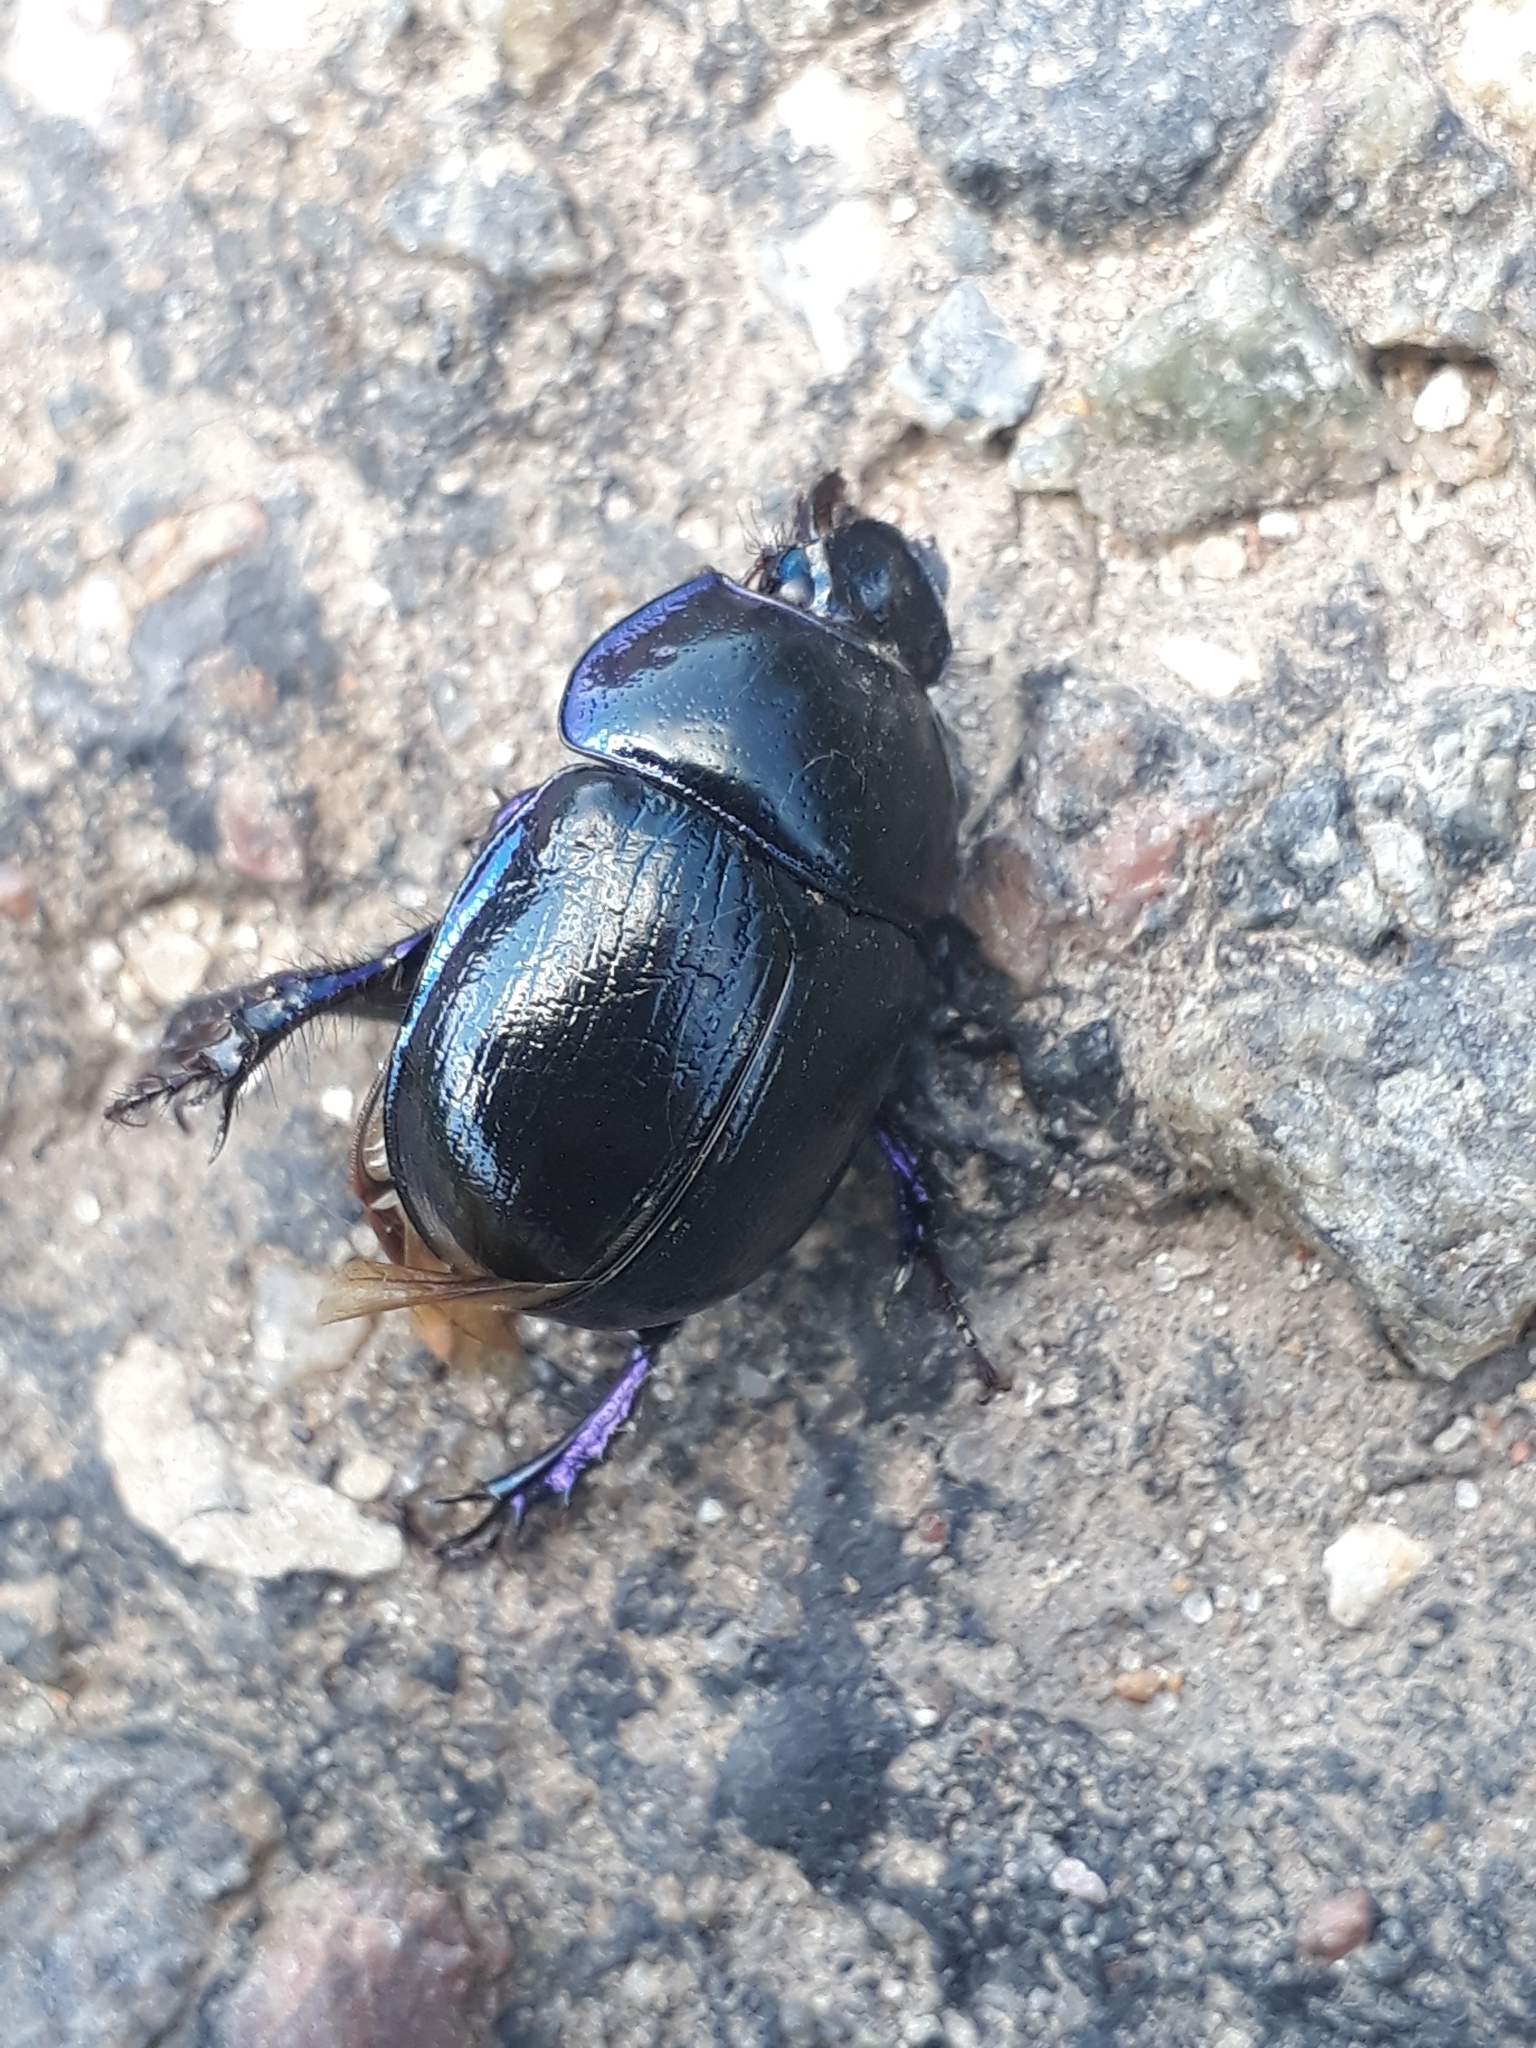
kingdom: Animalia
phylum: Arthropoda
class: Insecta
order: Coleoptera
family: Geotrupidae
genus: Anoplotrupes
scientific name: Anoplotrupes stercorosus
